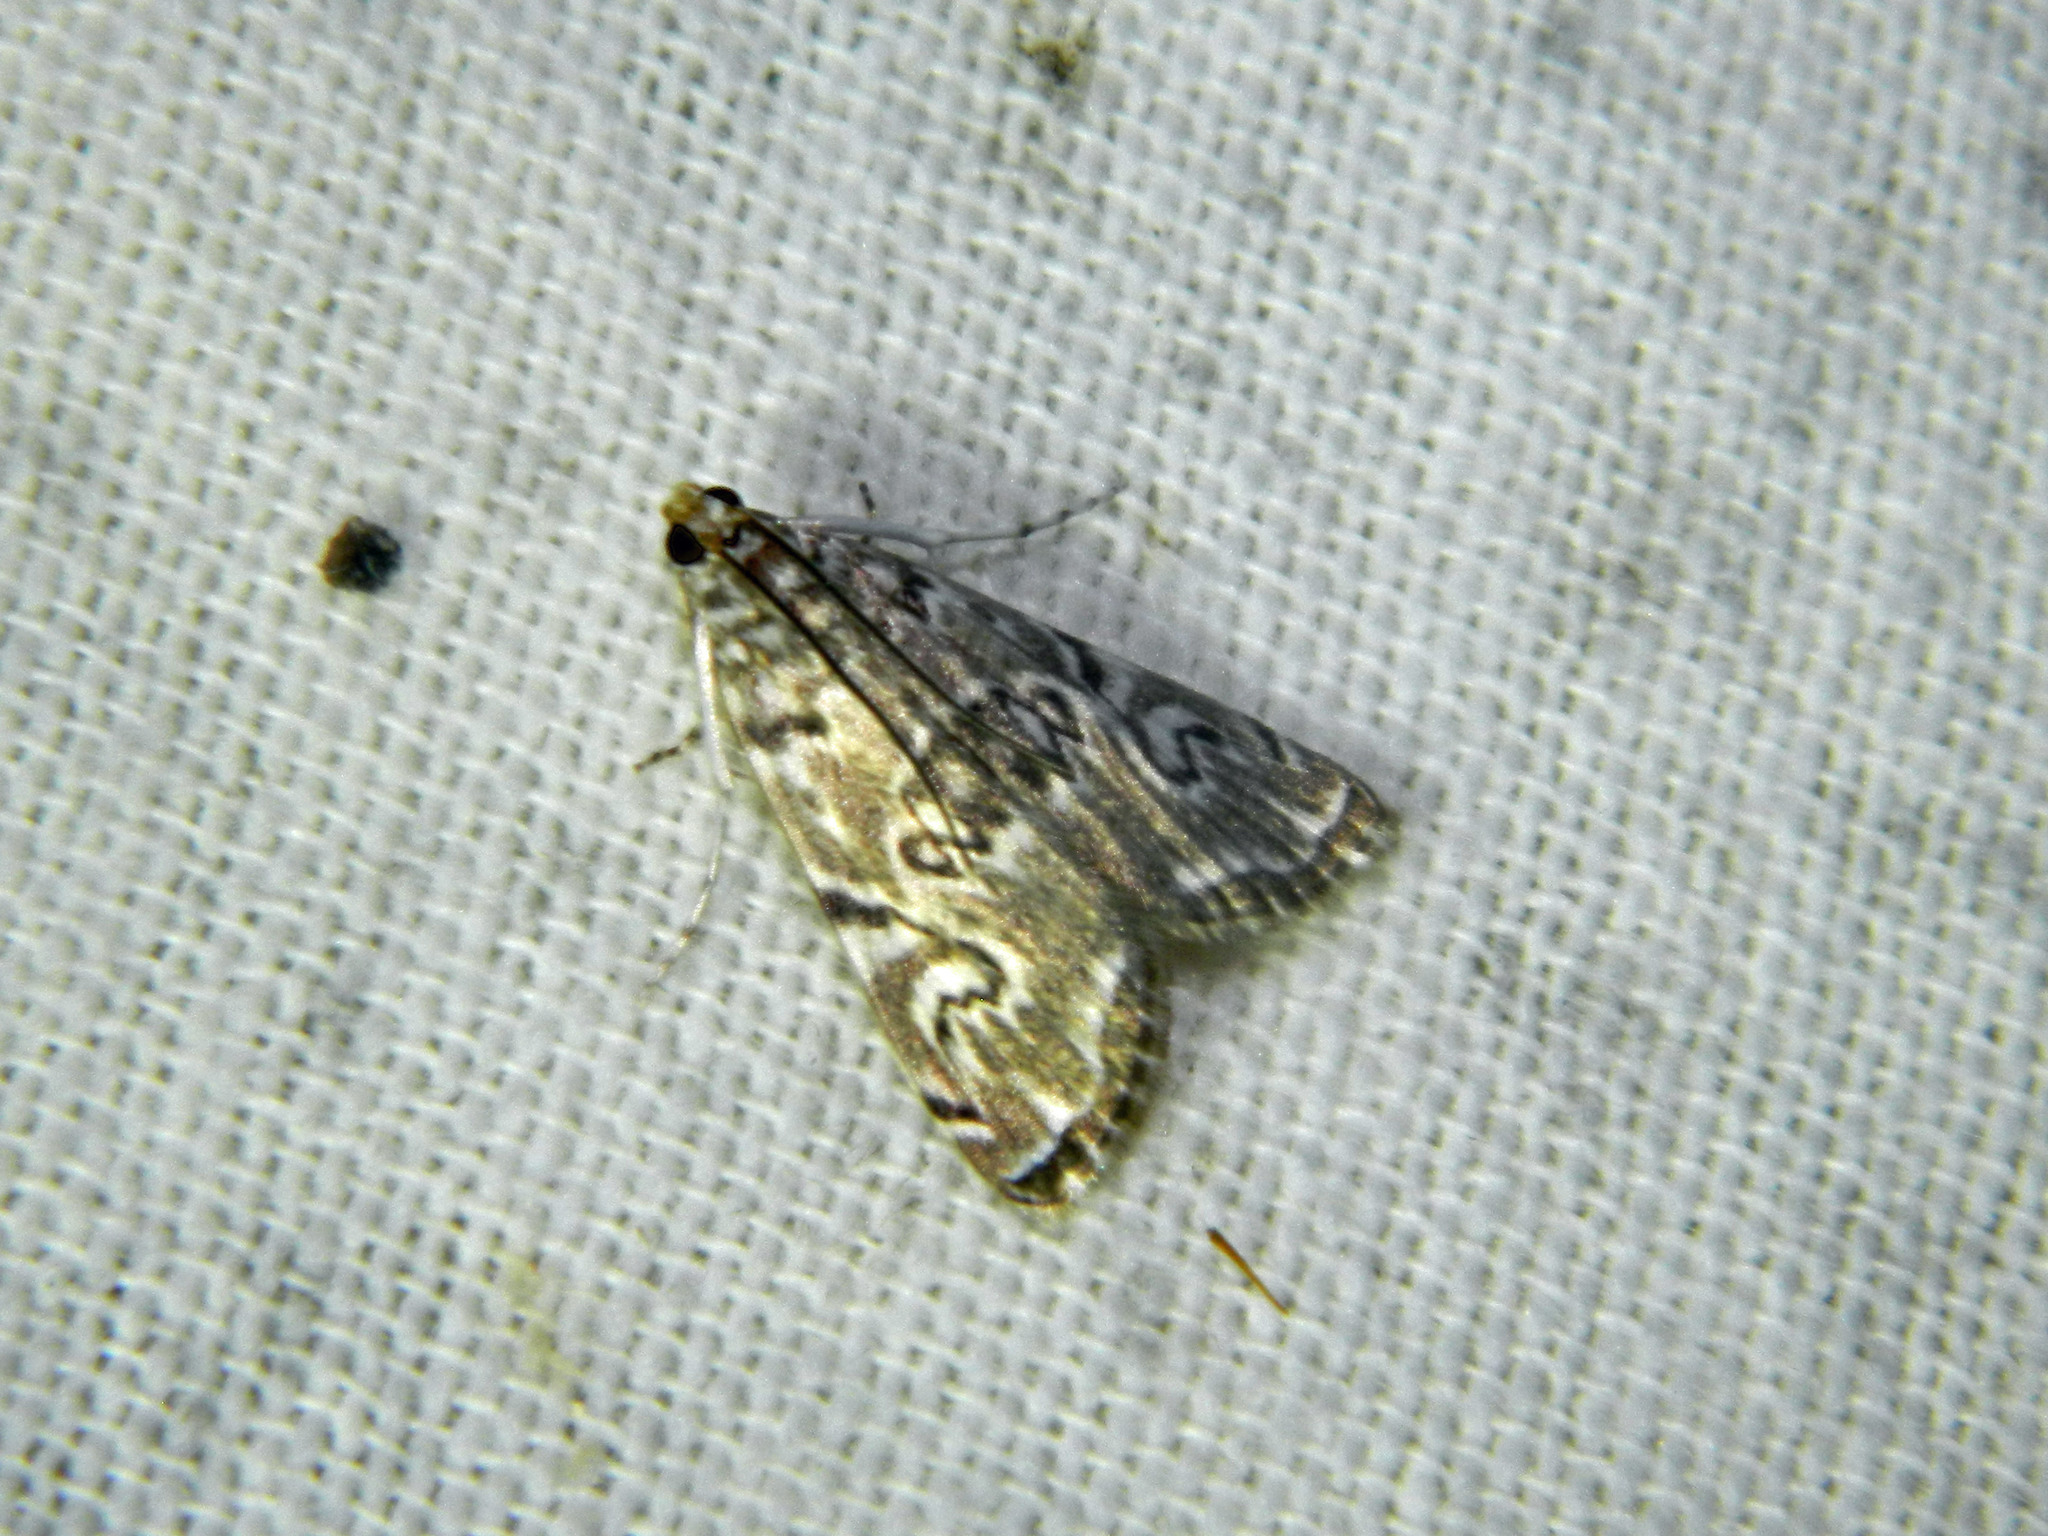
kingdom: Animalia
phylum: Arthropoda
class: Insecta
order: Lepidoptera
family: Crambidae
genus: Elophila
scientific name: Elophila gyralis
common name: Waterlily borer moth
